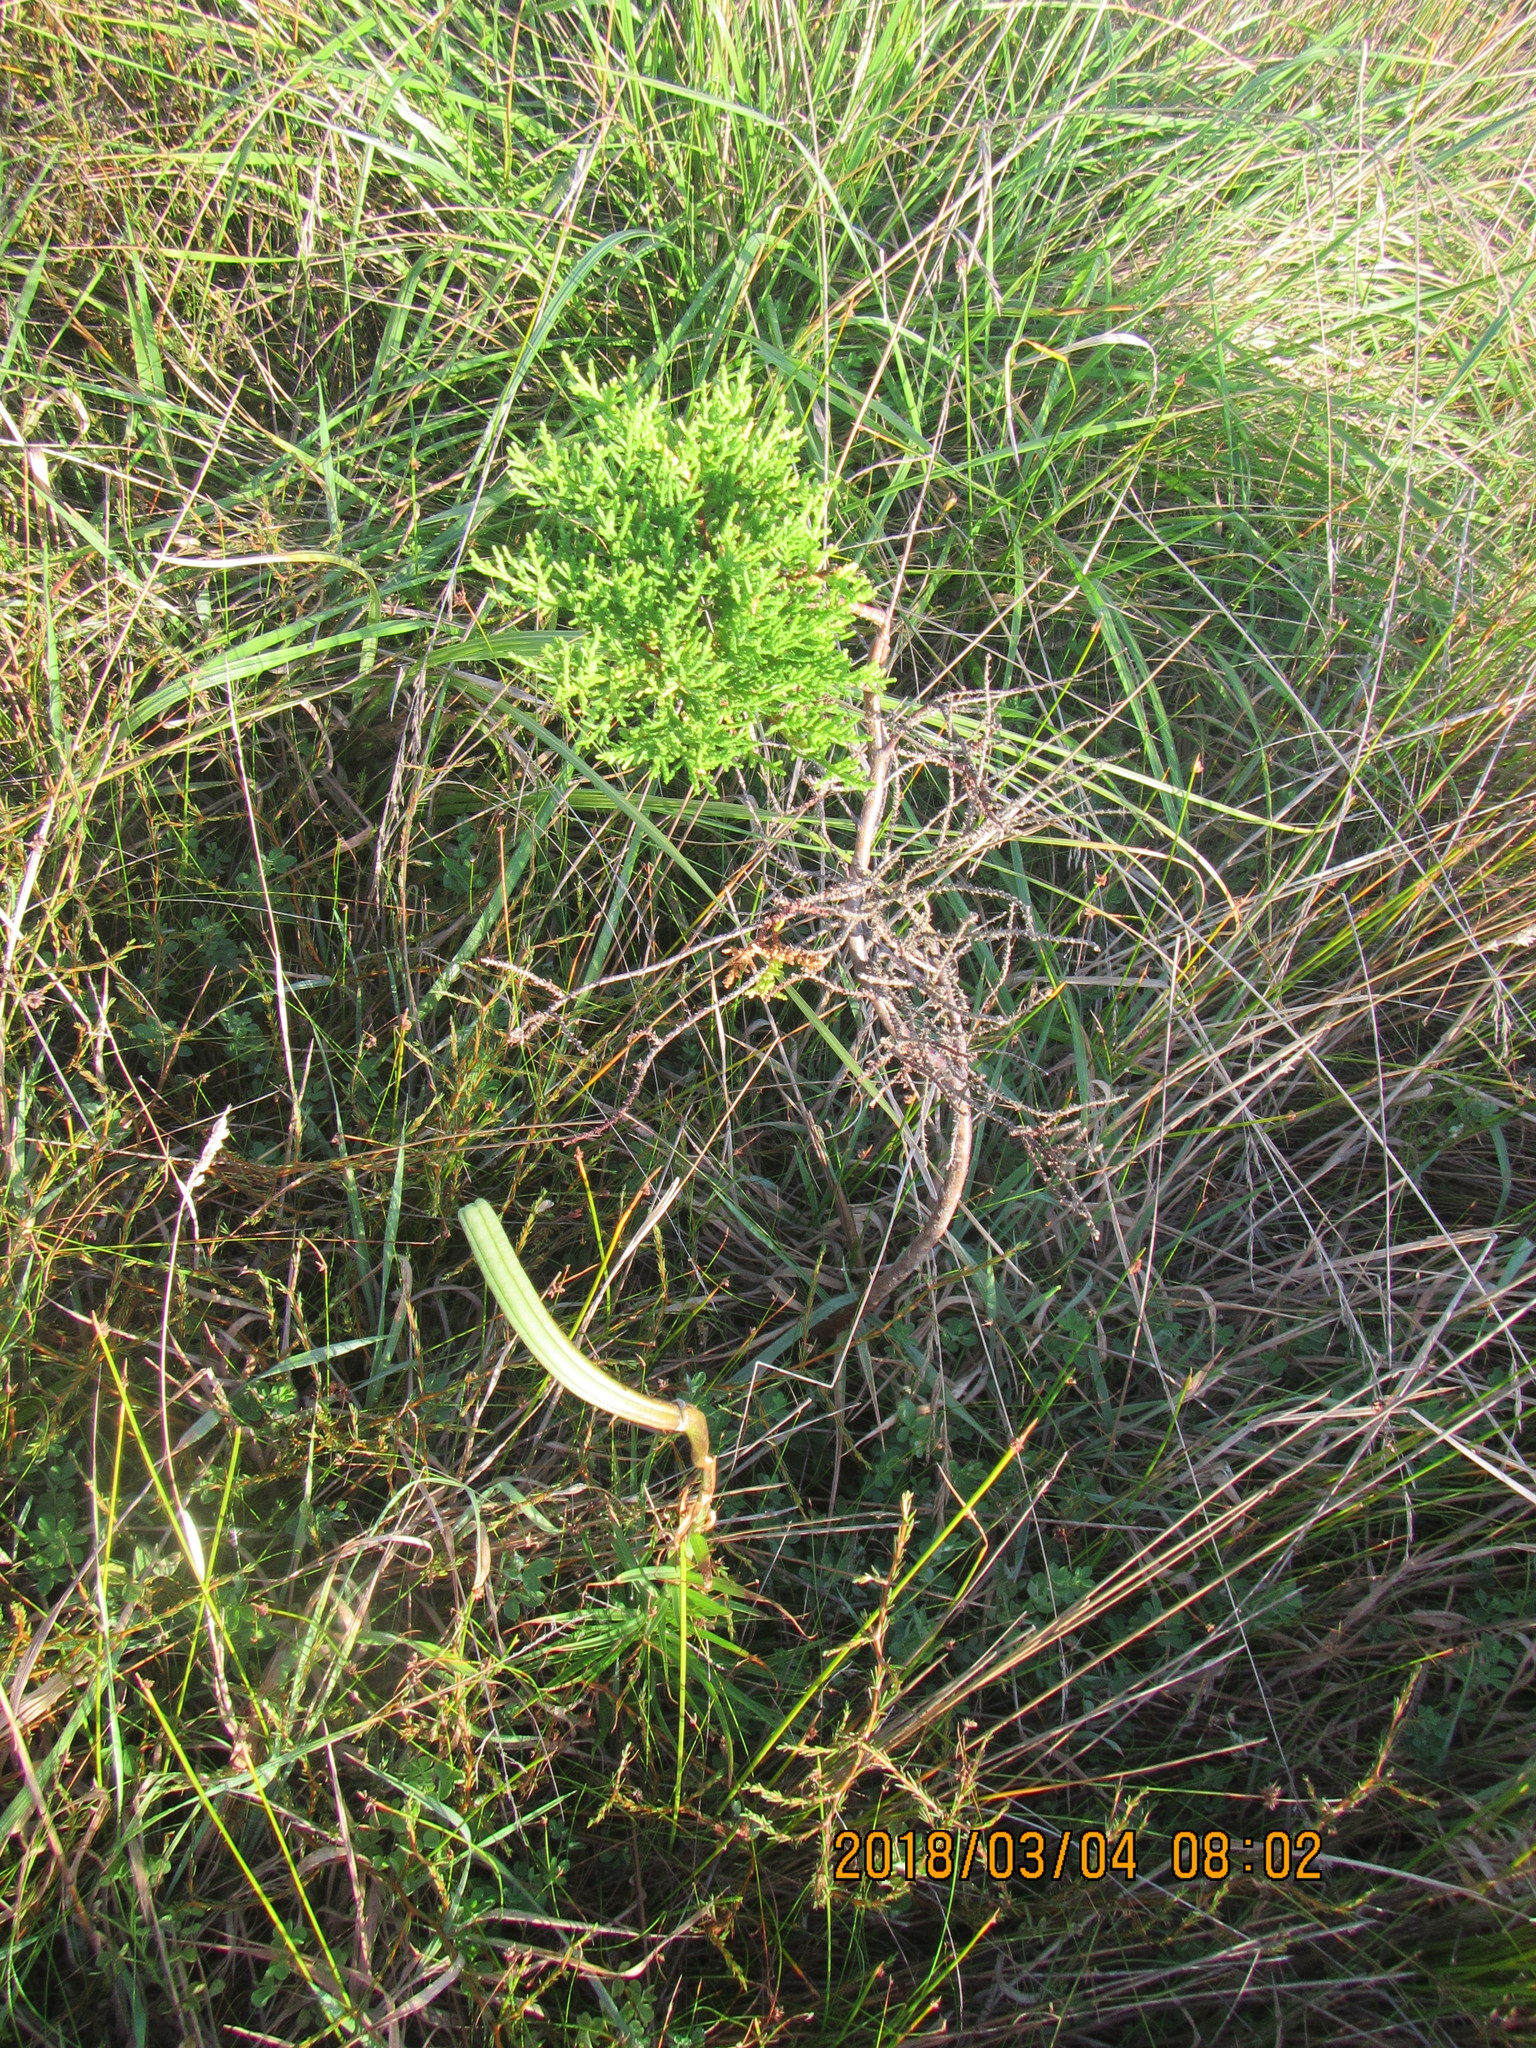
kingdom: Plantae
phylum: Tracheophyta
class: Pinopsida
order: Pinales
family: Cupressaceae
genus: Cupressus
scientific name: Cupressus macrocarpa
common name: Monterey cypress
